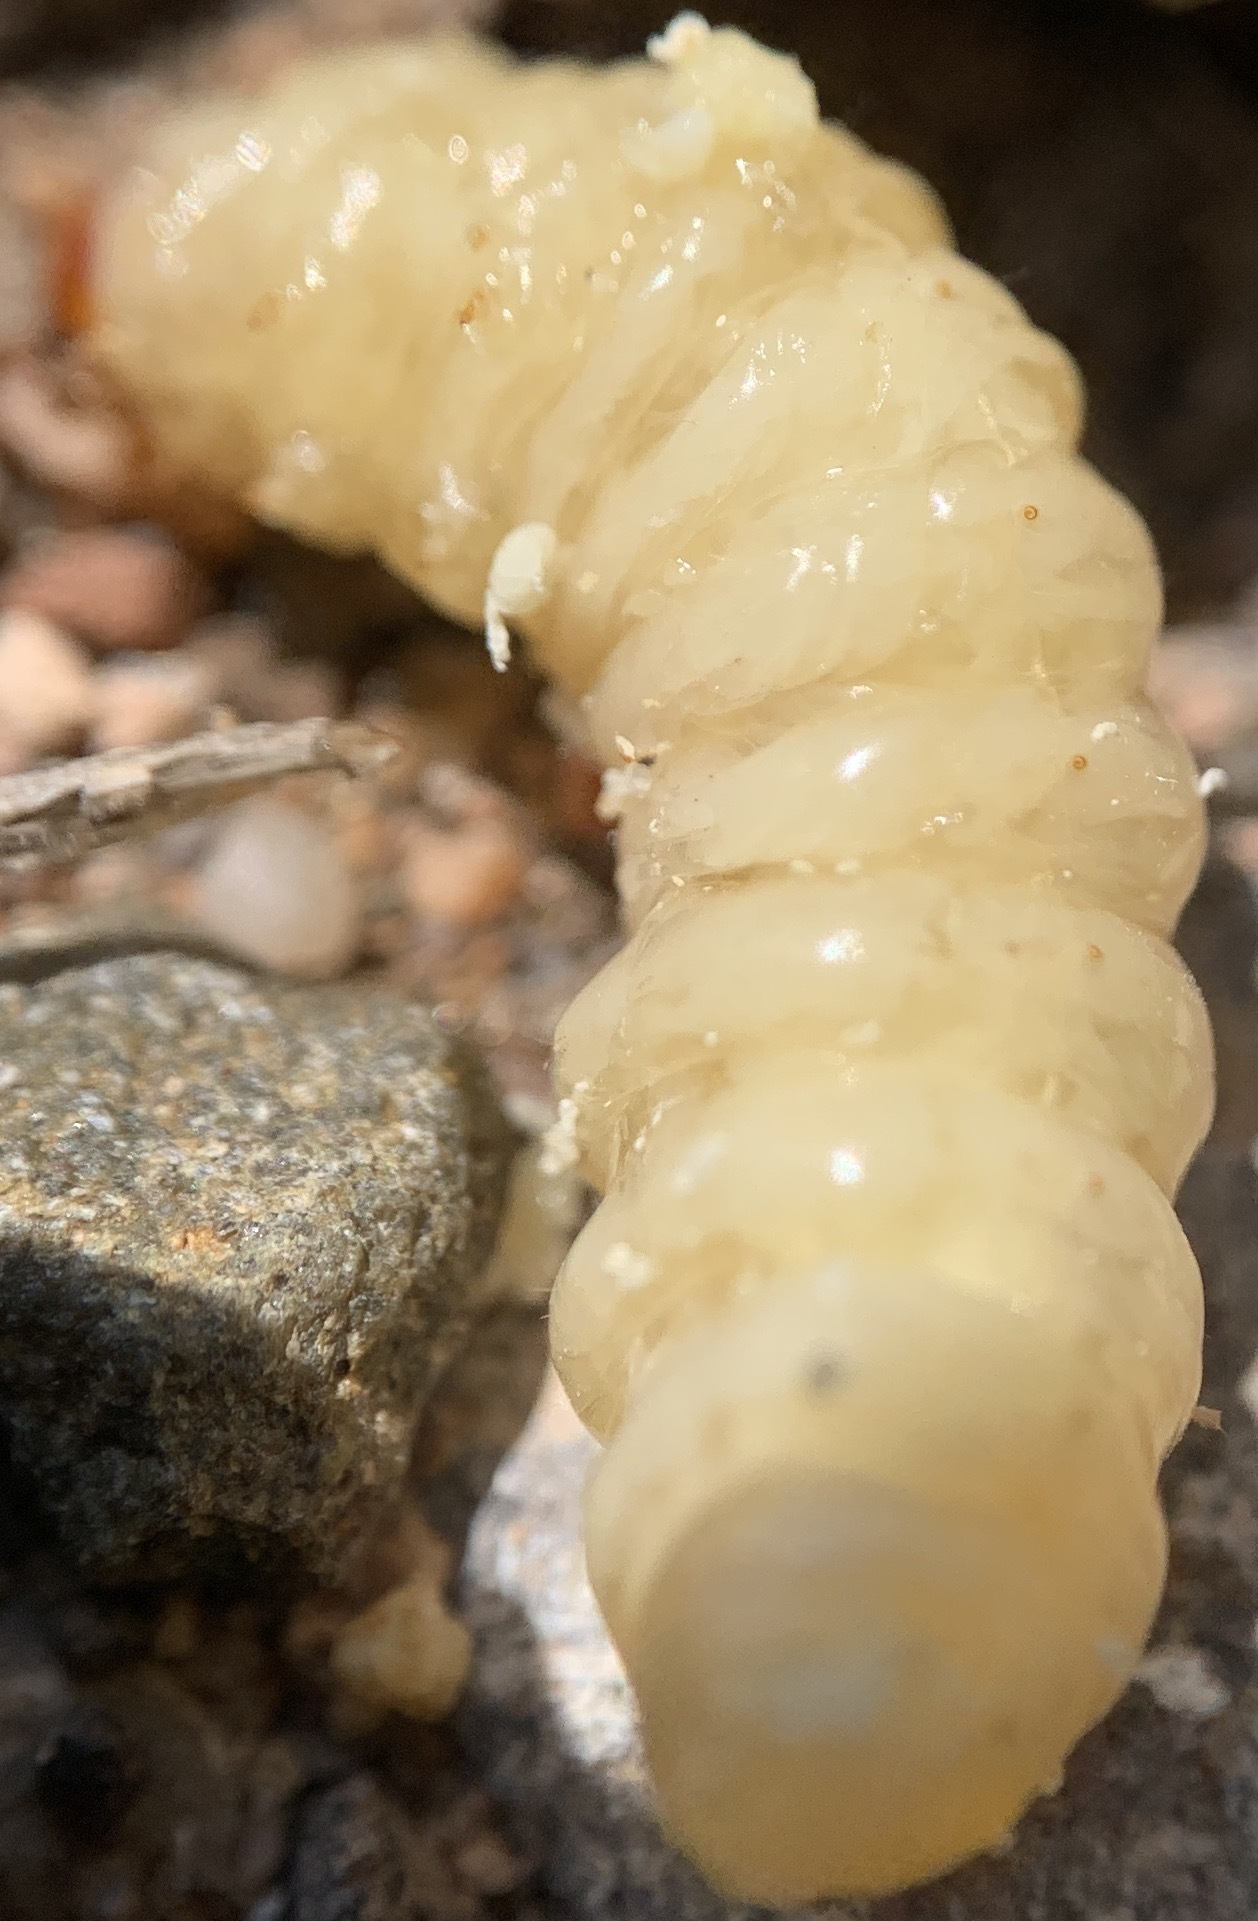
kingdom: Animalia
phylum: Arthropoda
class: Insecta
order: Lepidoptera
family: Sesiidae
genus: Eichlinia
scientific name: Eichlinia snowii
